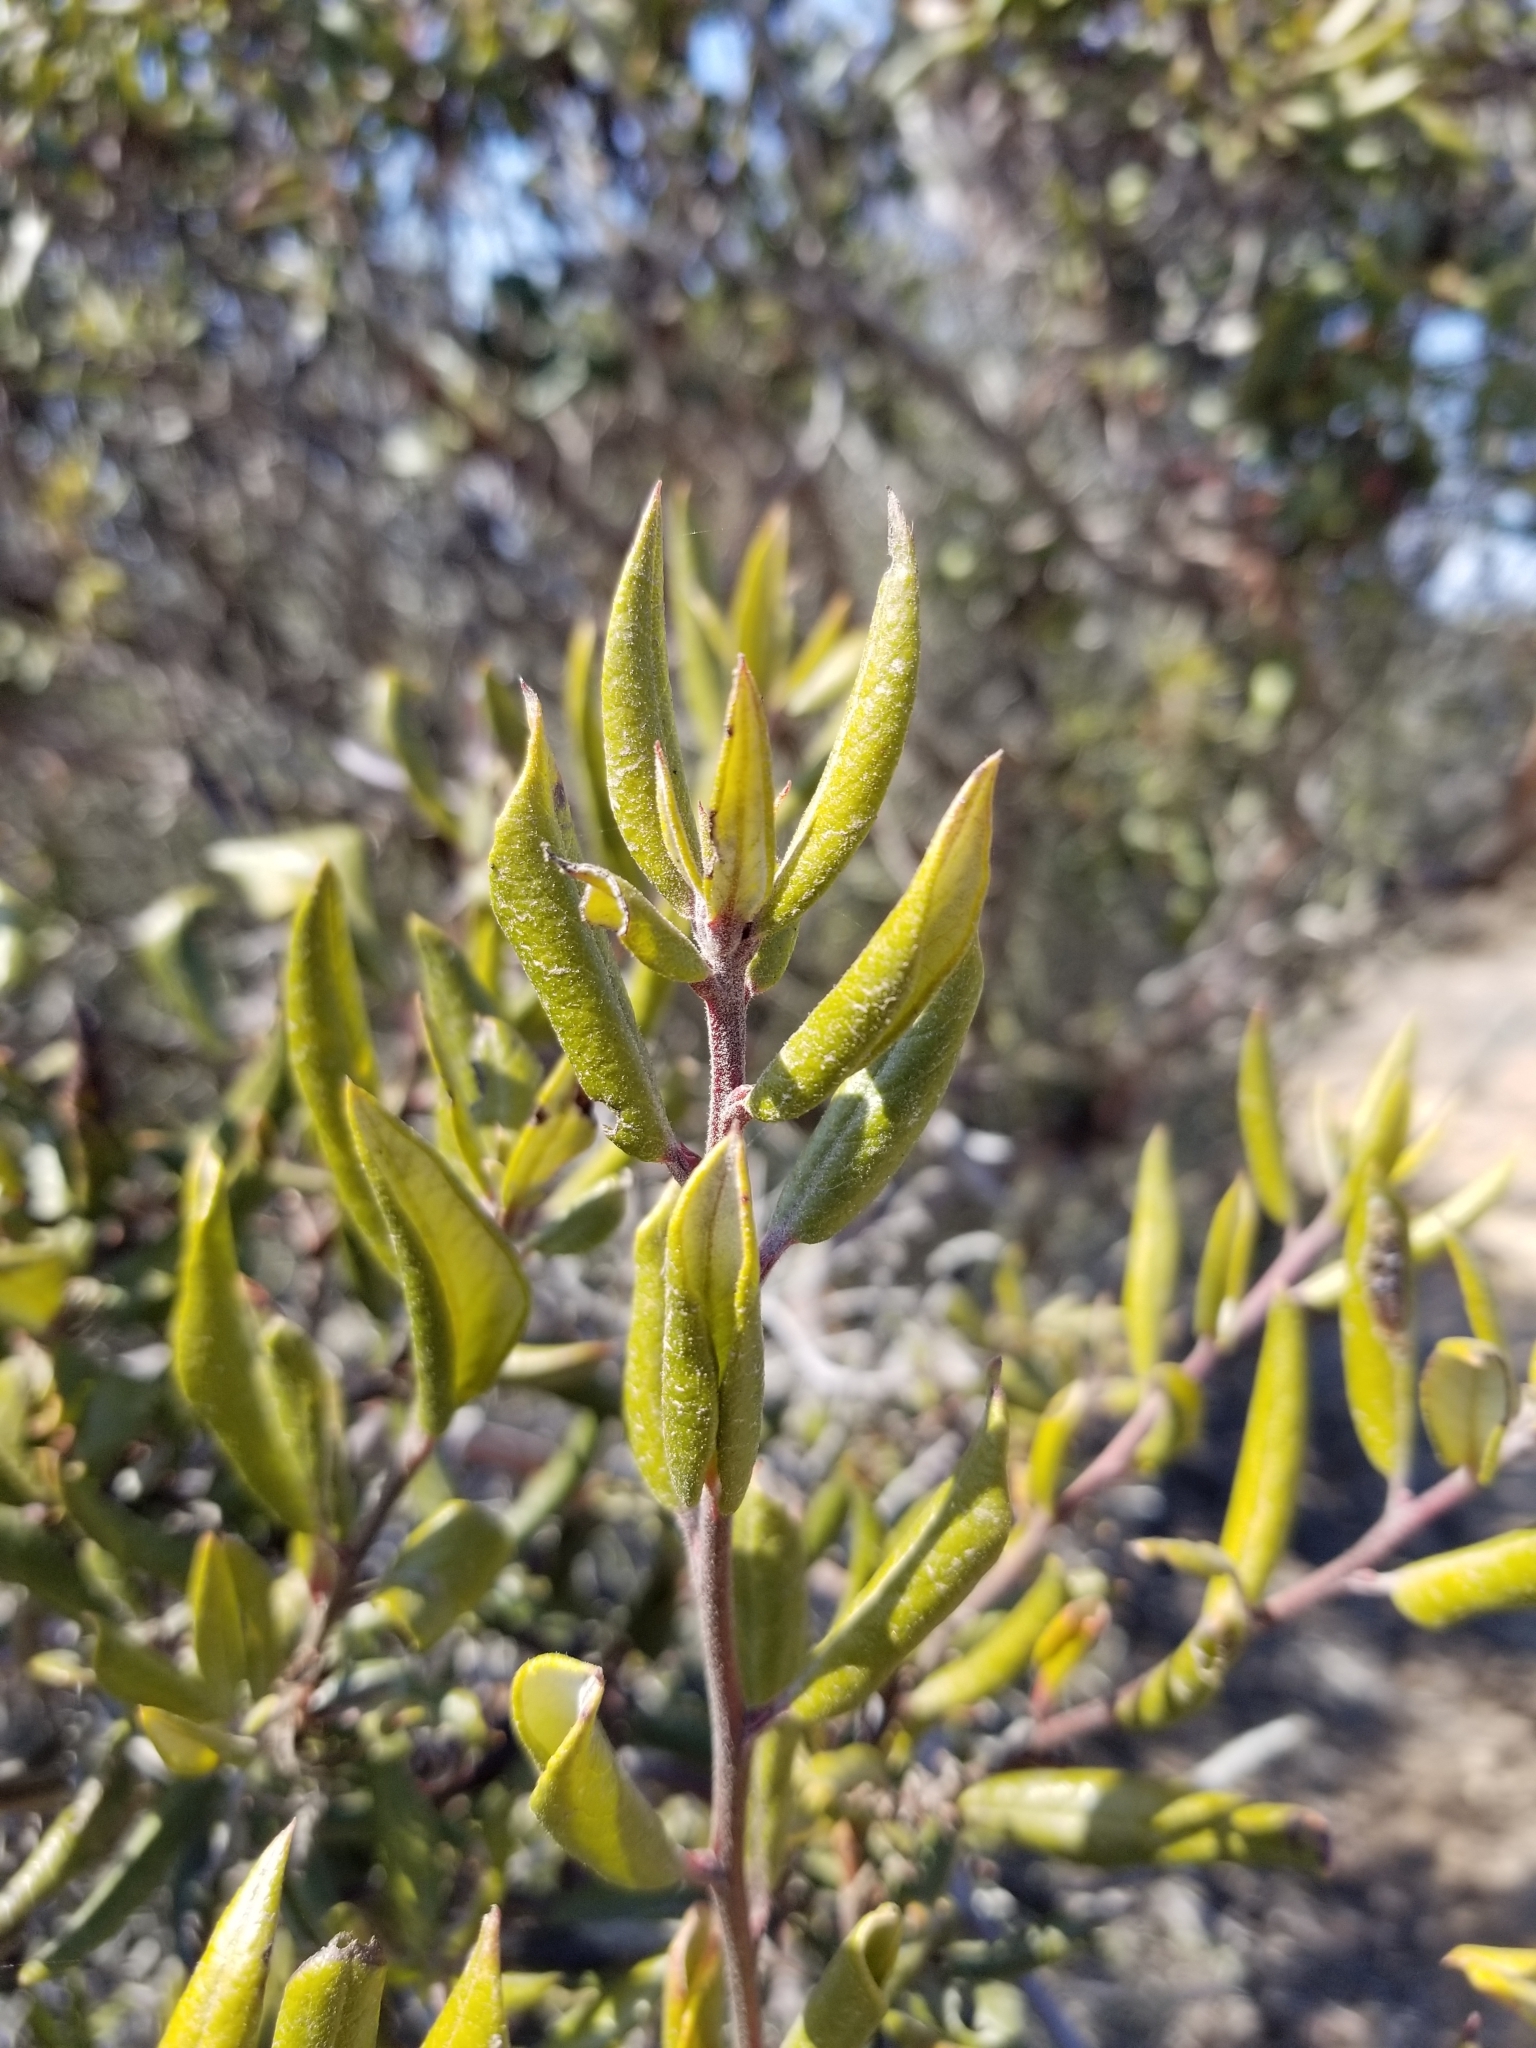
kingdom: Plantae
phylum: Tracheophyta
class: Magnoliopsida
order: Ericales
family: Ericaceae
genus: Arctostaphylos
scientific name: Arctostaphylos bicolor
